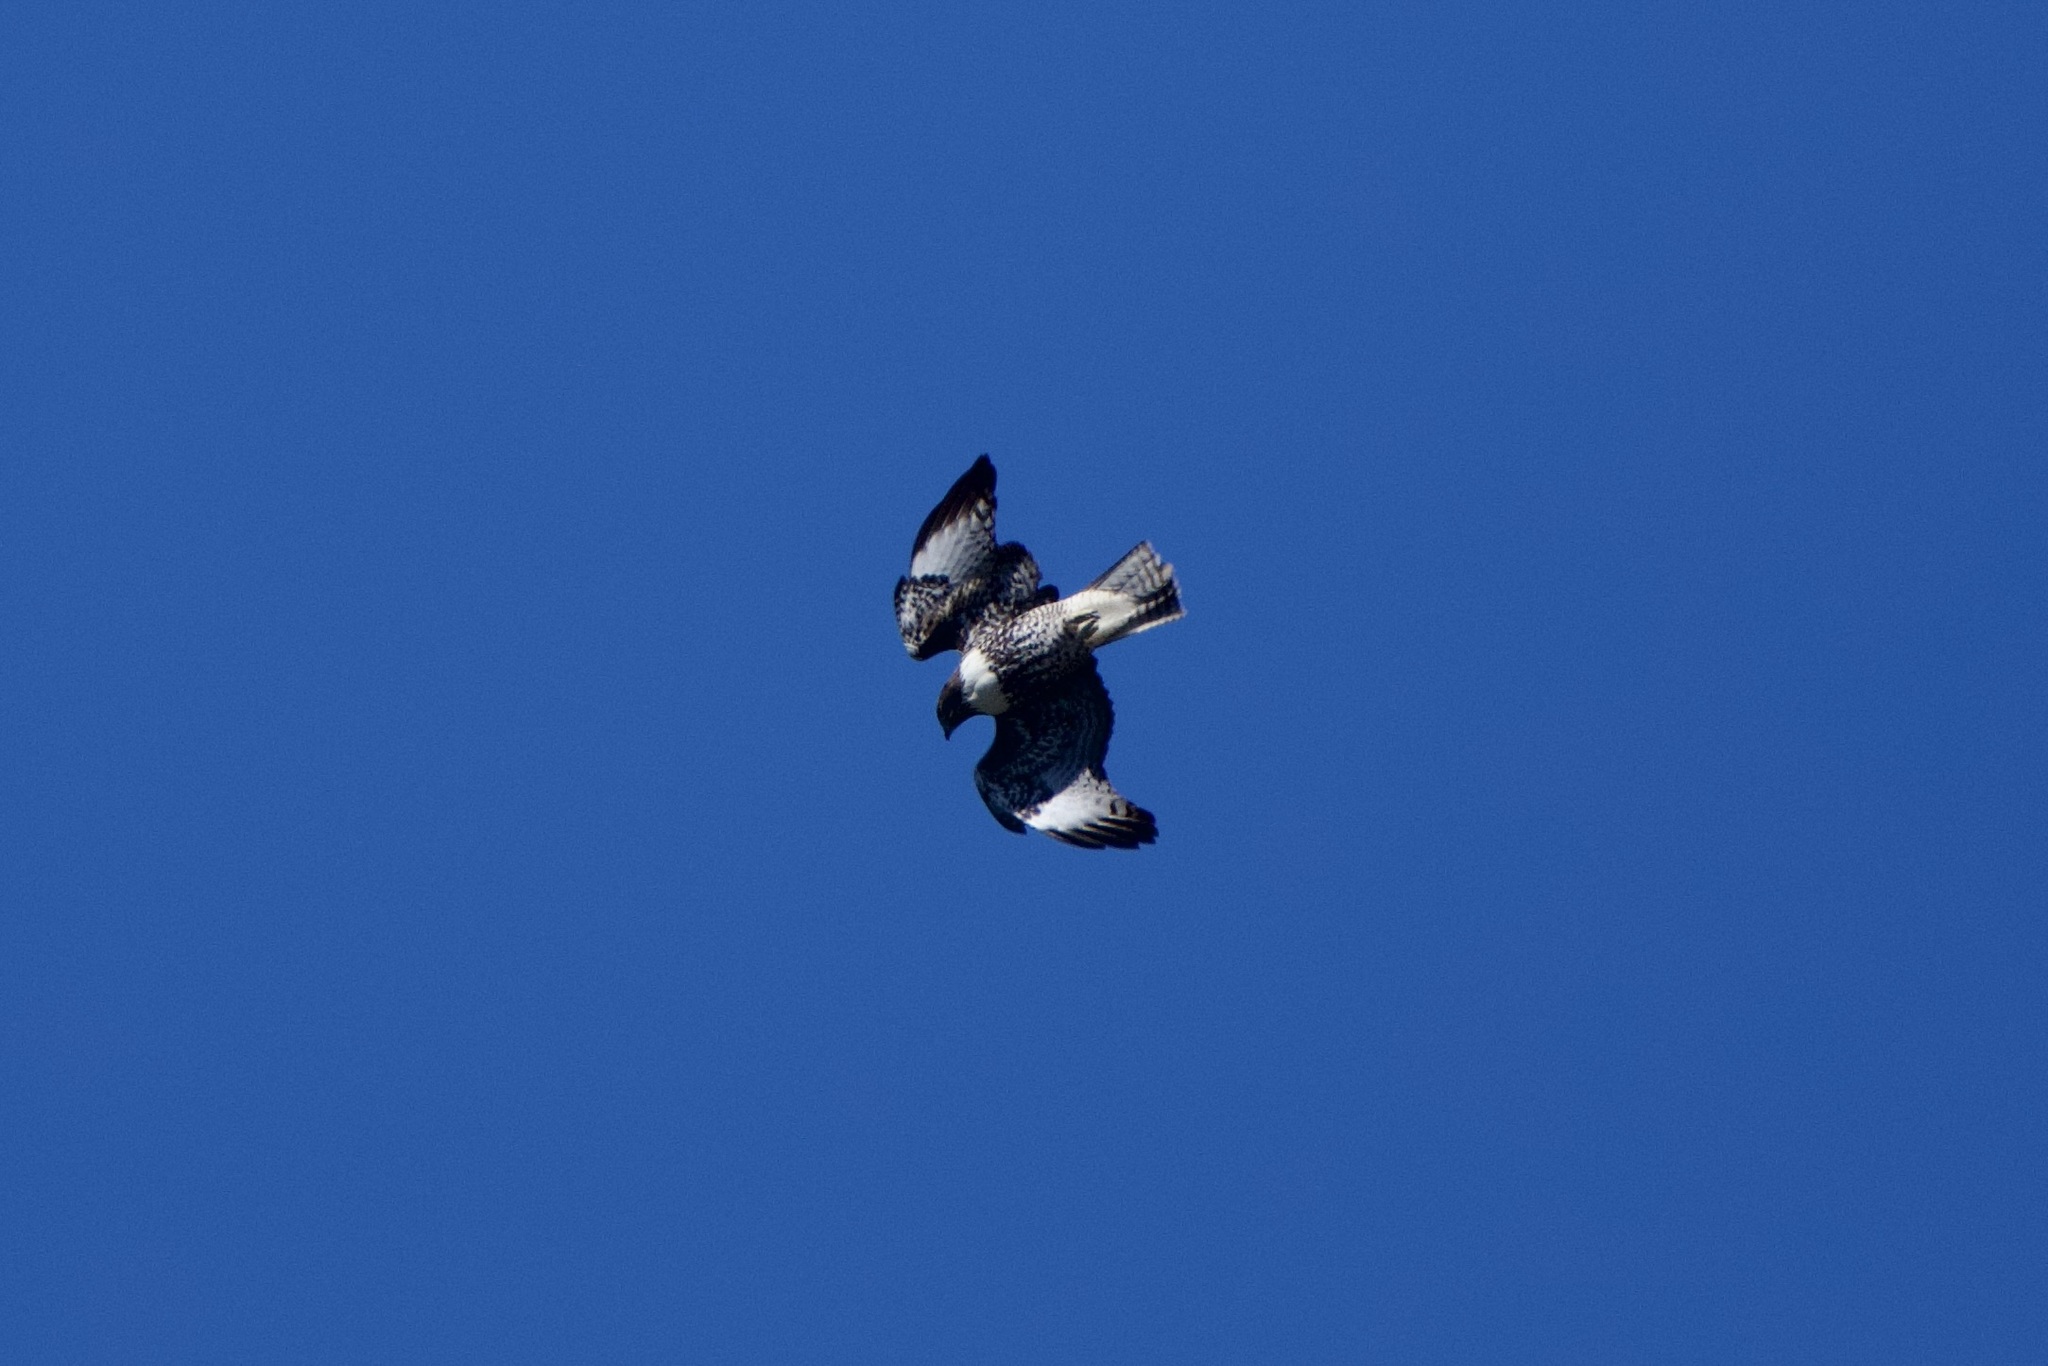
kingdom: Animalia
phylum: Chordata
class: Aves
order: Accipitriformes
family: Accipitridae
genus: Buteo
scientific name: Buteo jamaicensis
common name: Red-tailed hawk
